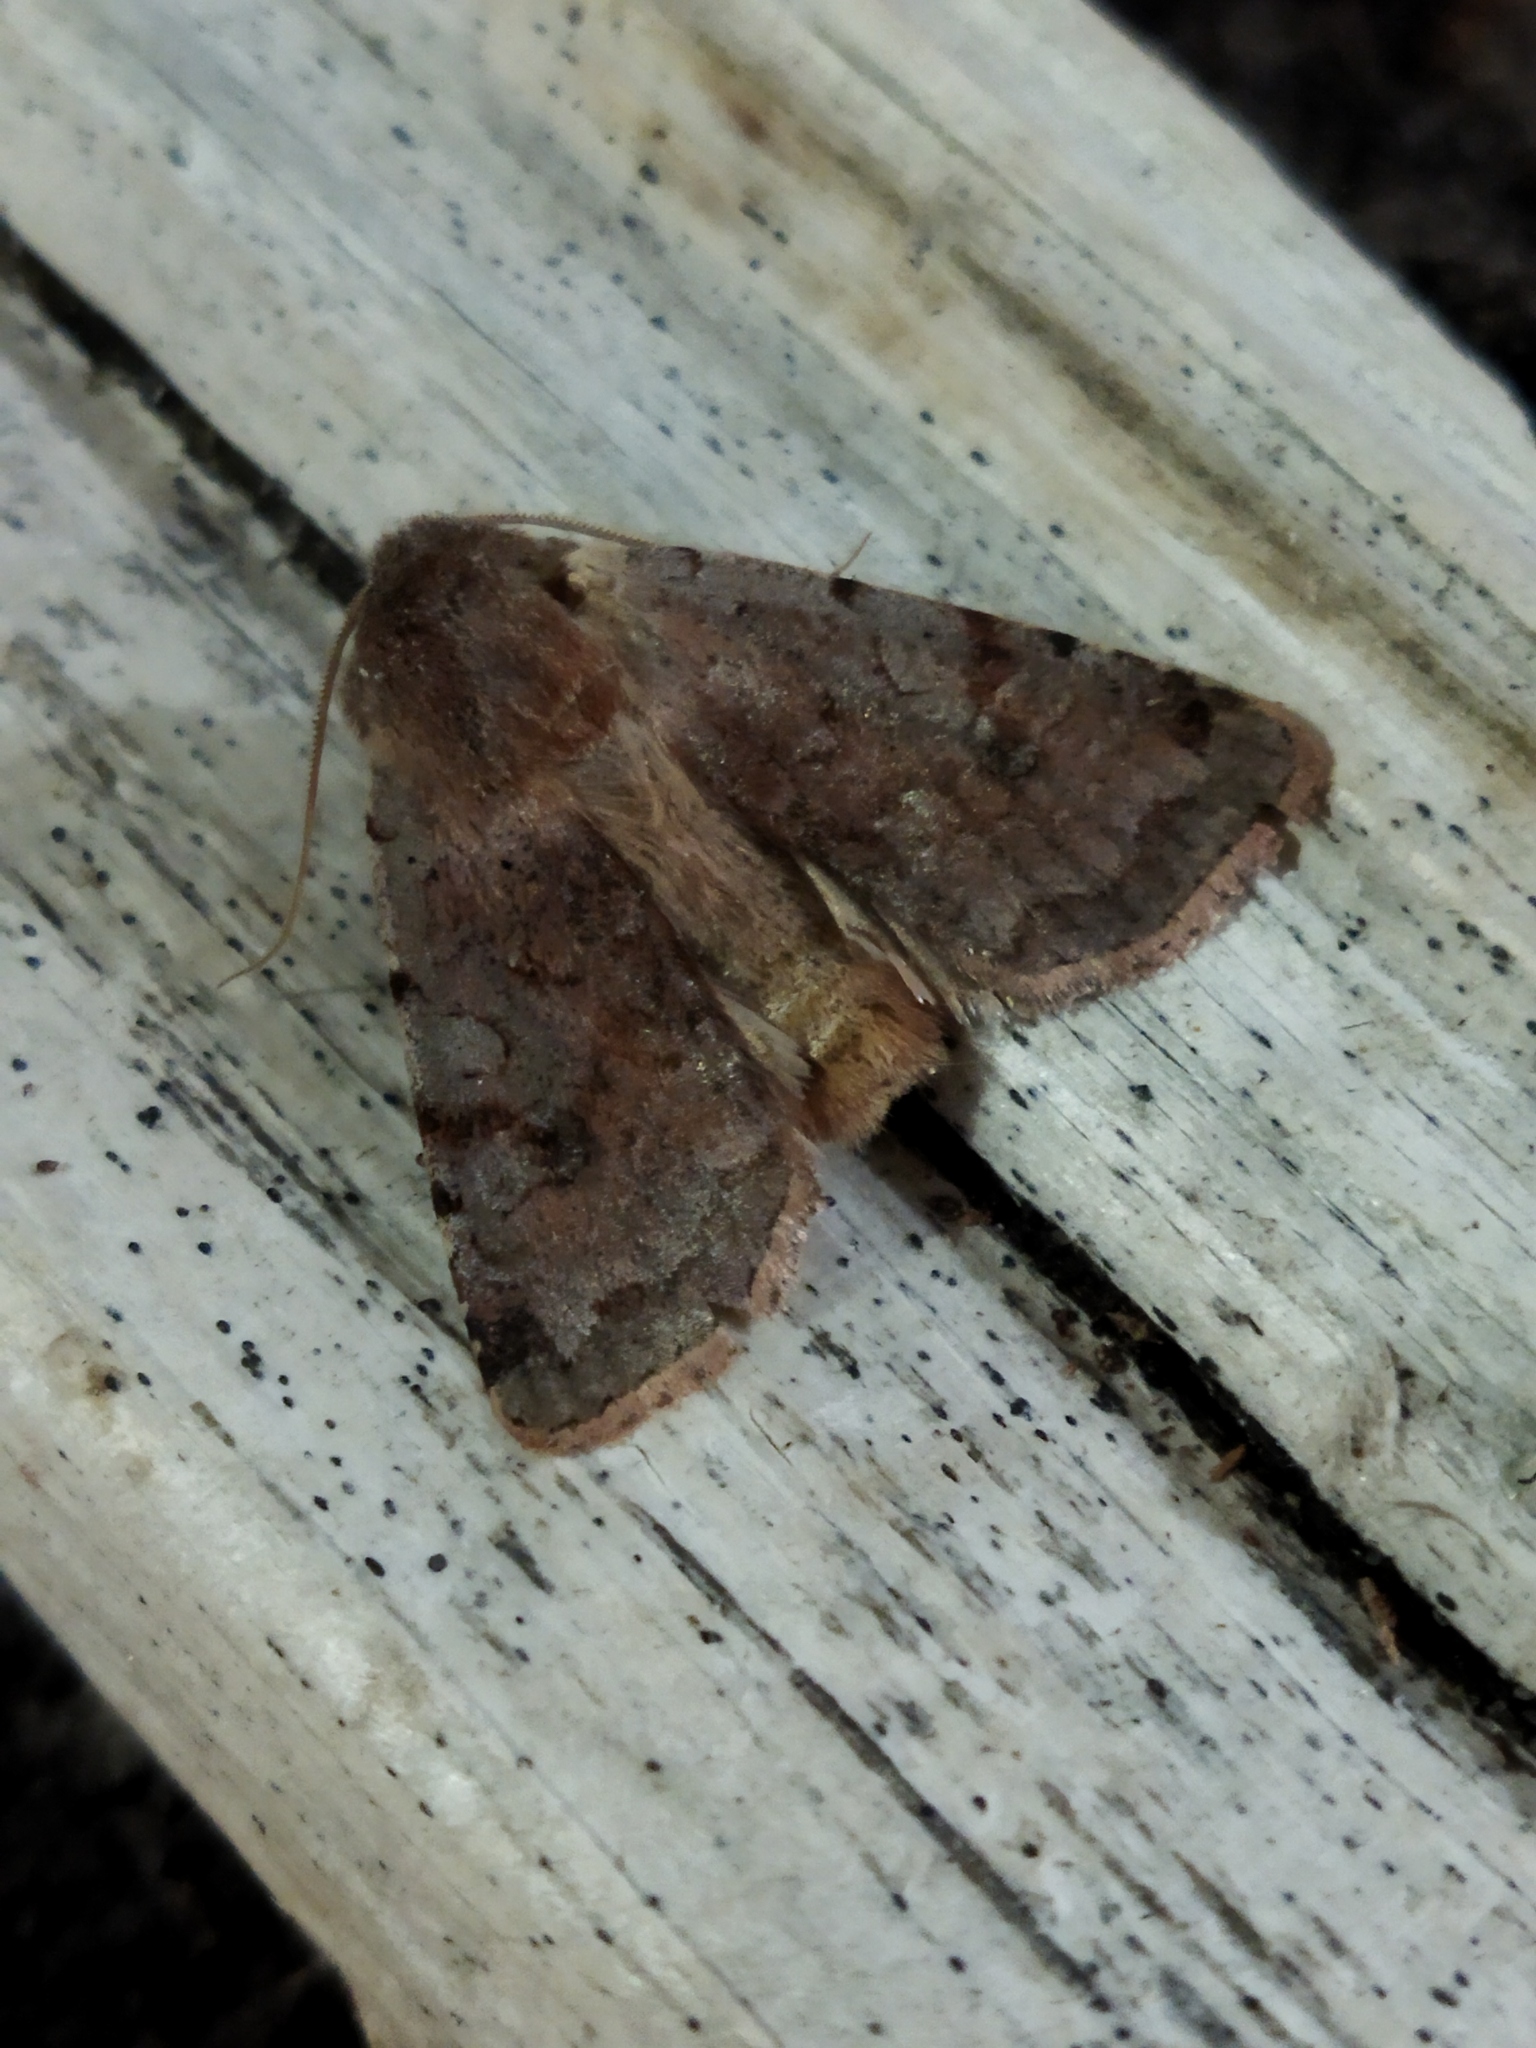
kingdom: Animalia
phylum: Arthropoda
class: Insecta
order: Lepidoptera
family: Noctuidae
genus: Cerastis
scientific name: Cerastis rubricosa
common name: Red chestnut
